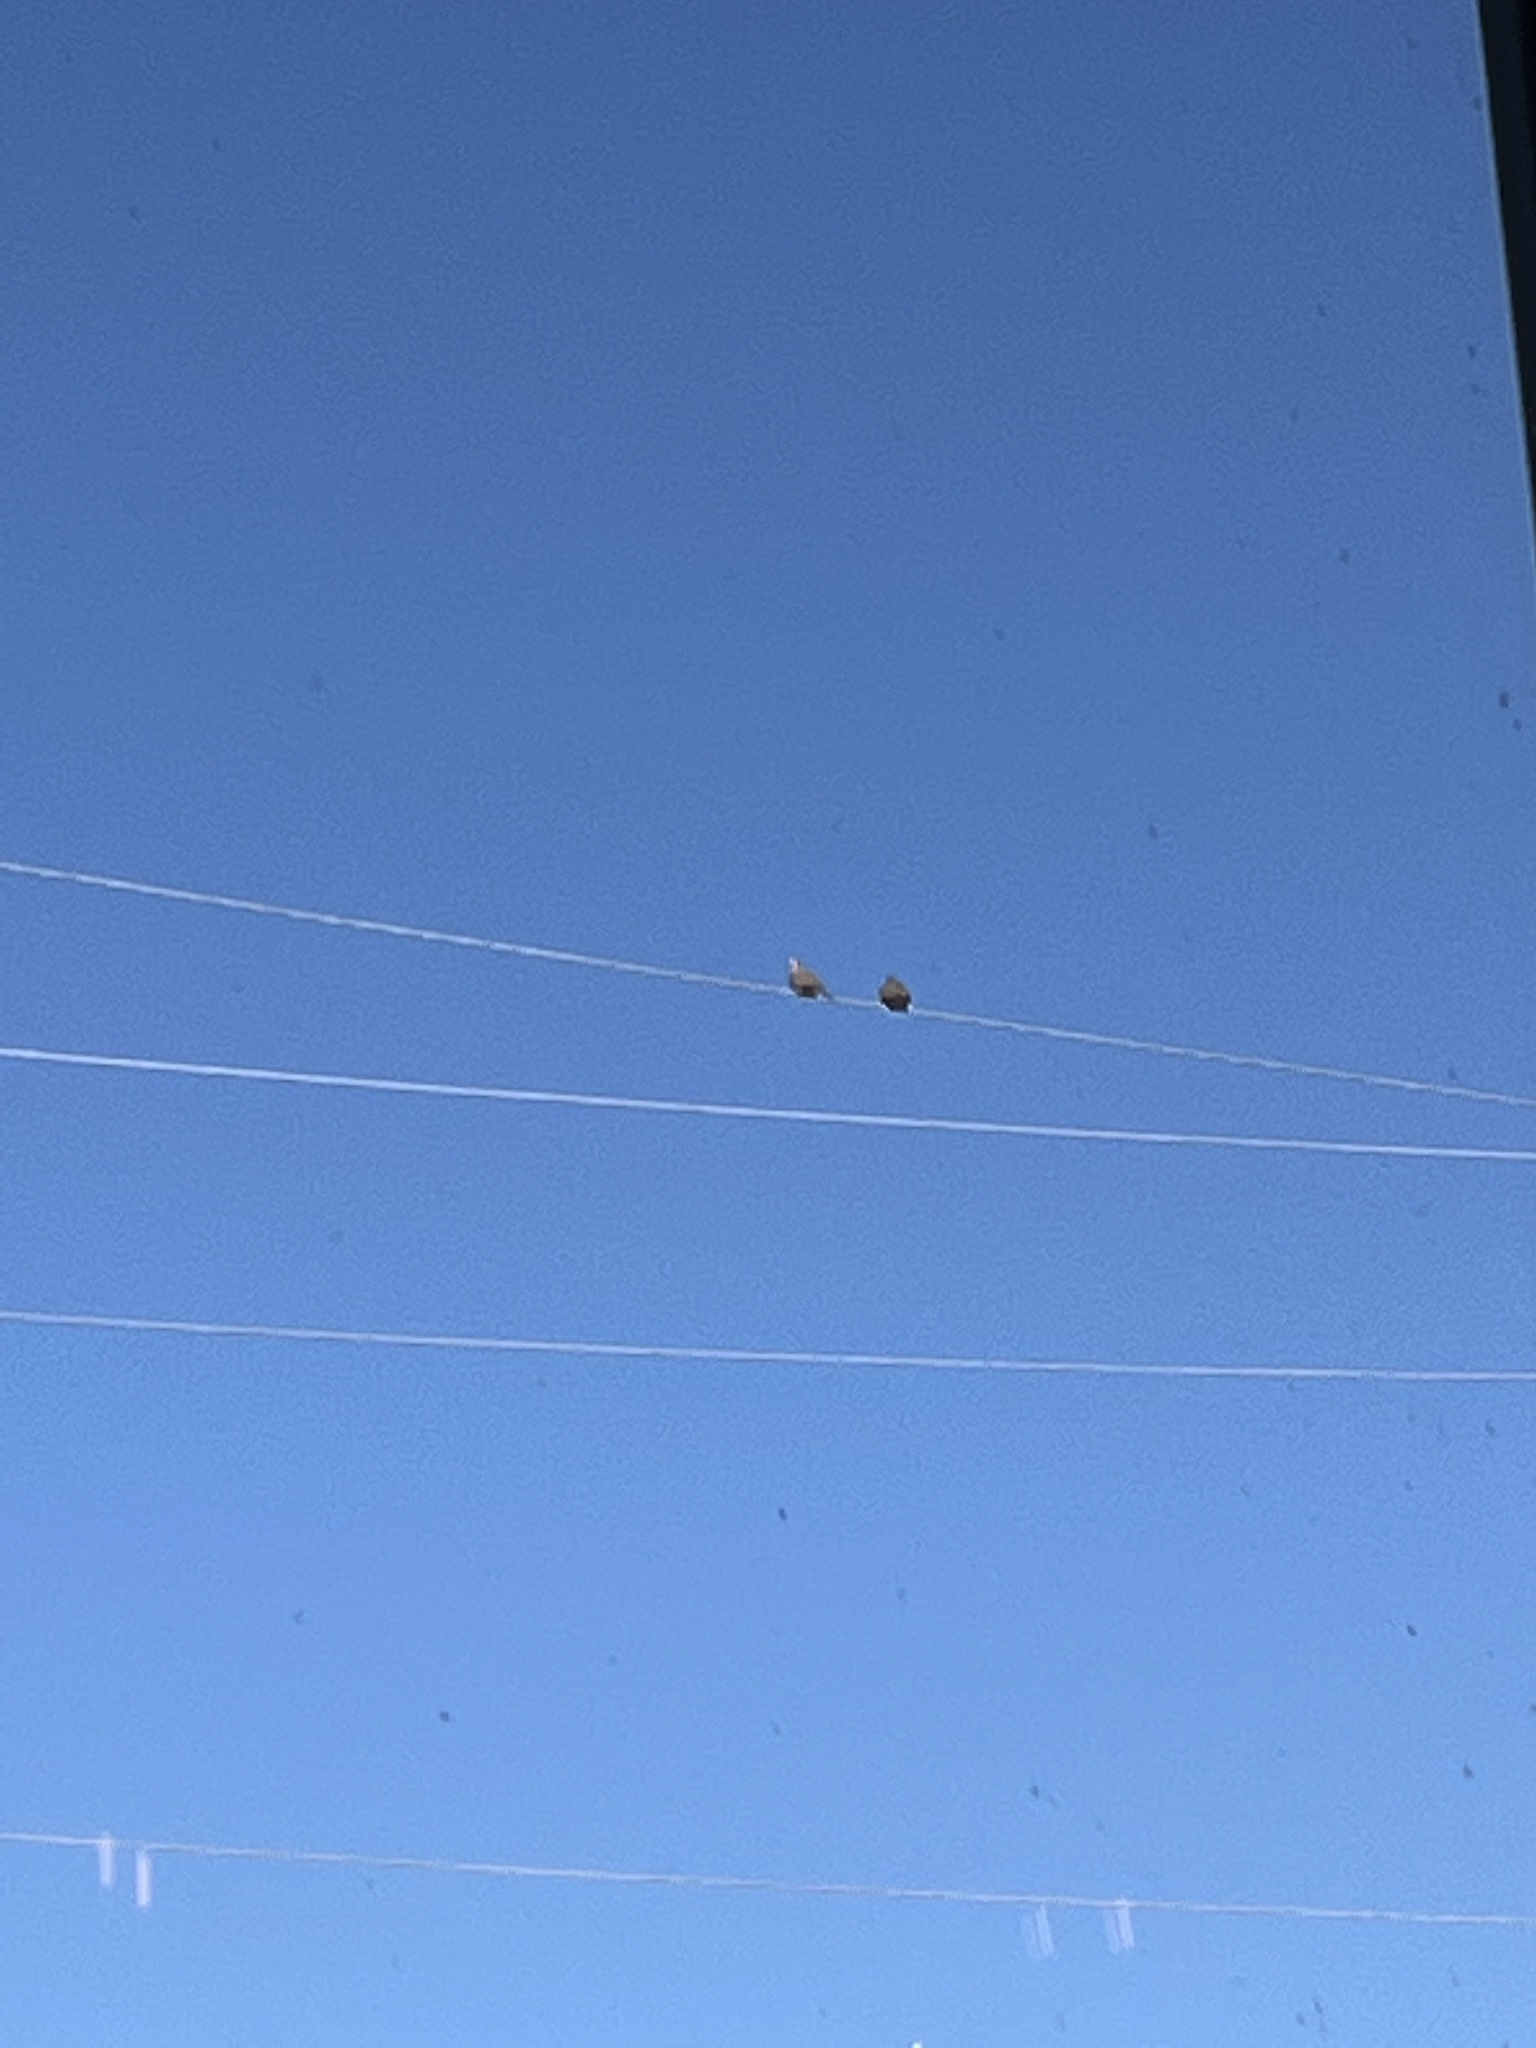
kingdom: Animalia
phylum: Chordata
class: Aves
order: Columbiformes
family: Columbidae
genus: Zenaida
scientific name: Zenaida macroura
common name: Mourning dove
